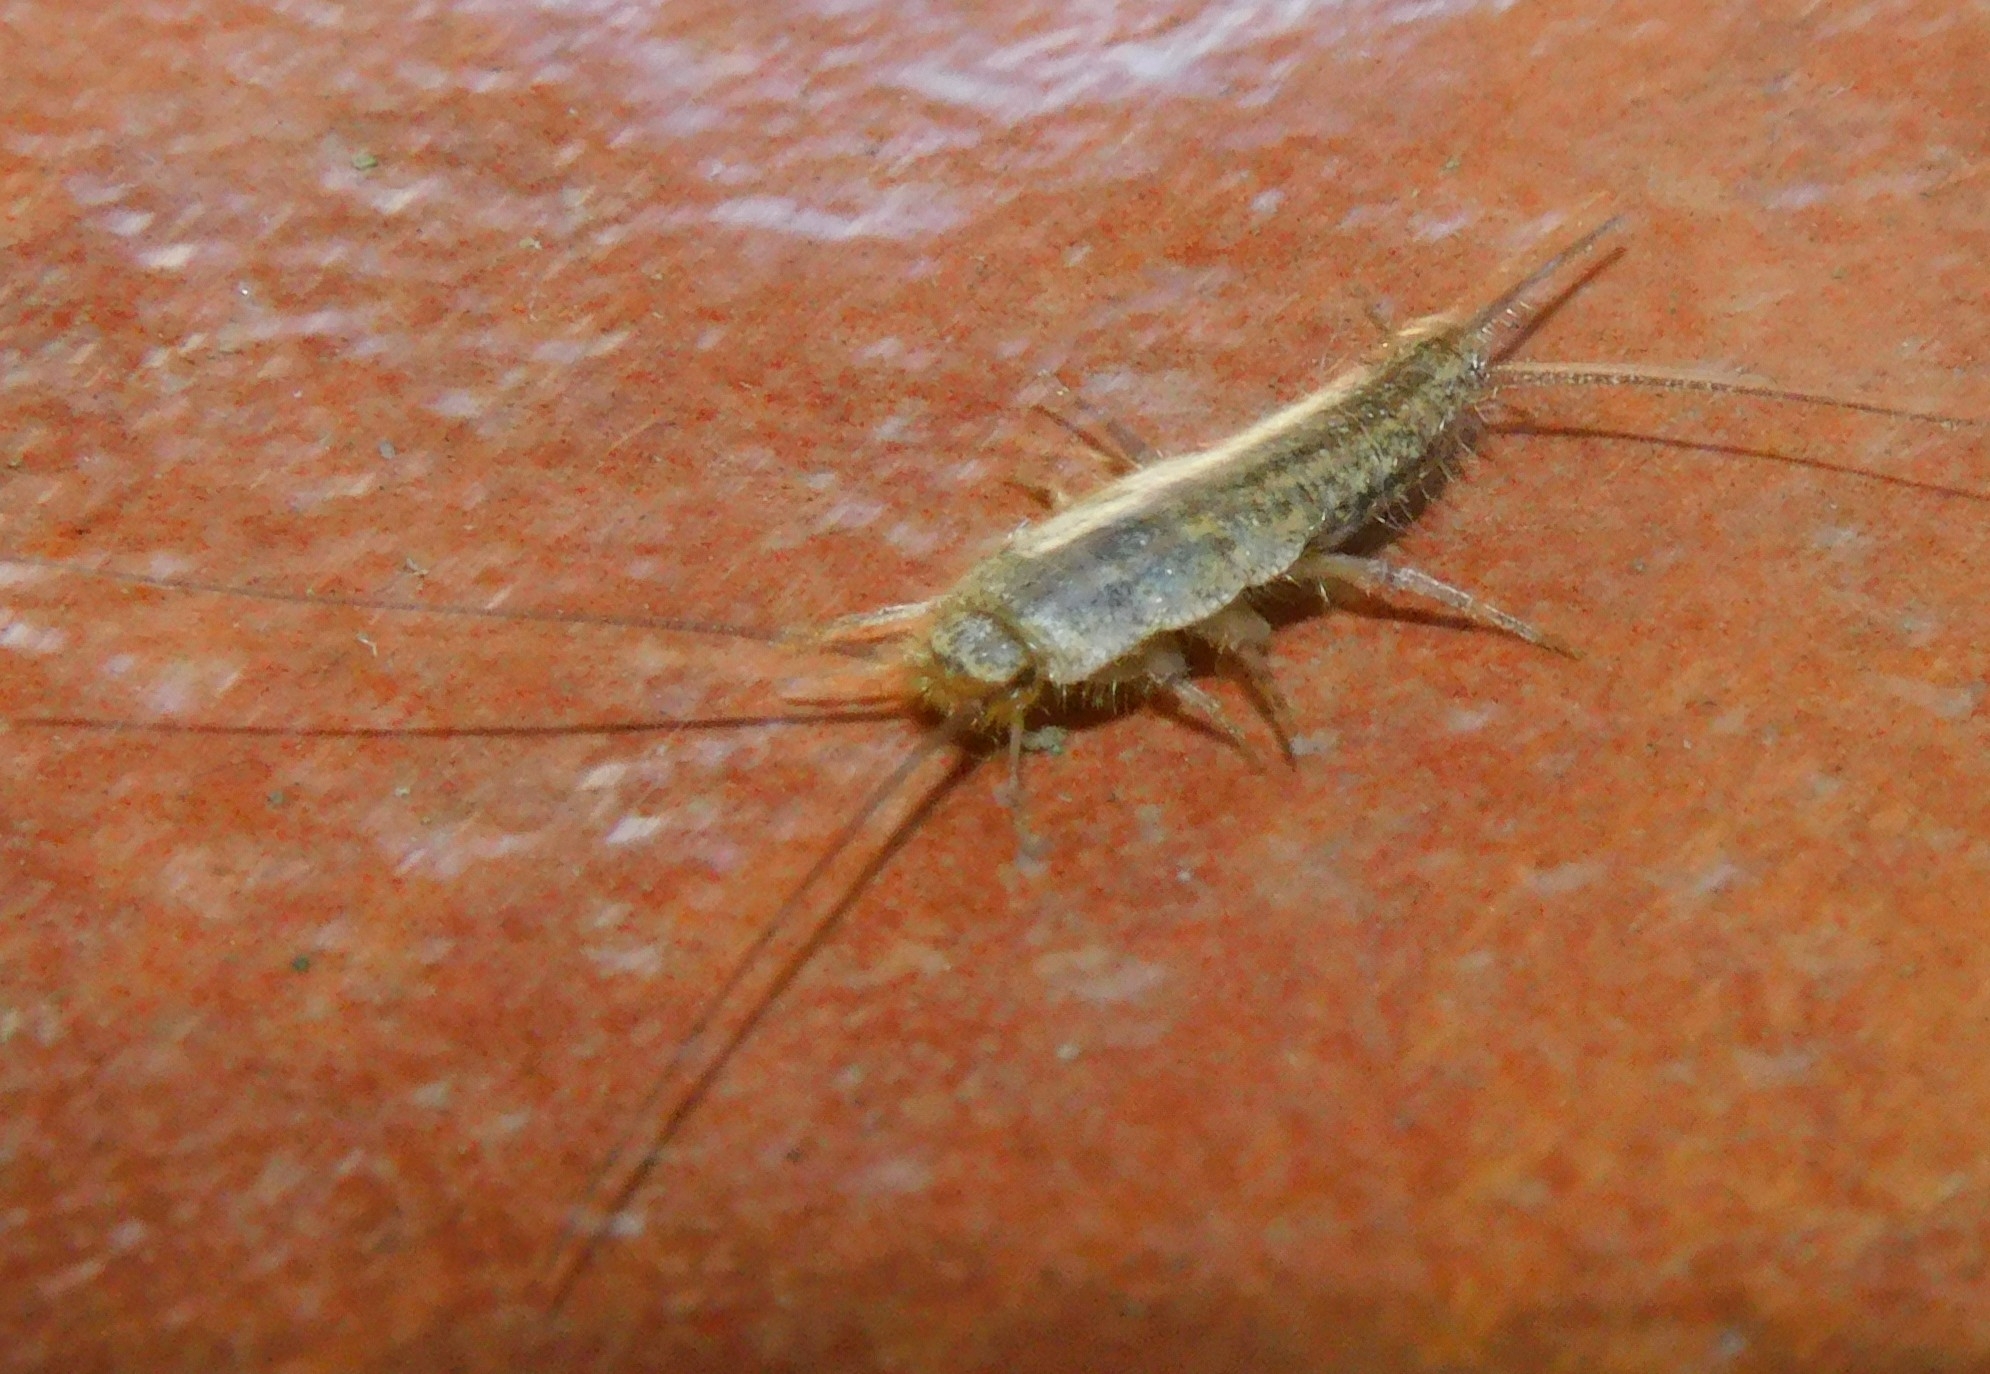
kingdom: Animalia
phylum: Arthropoda
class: Insecta
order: Zygentoma
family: Lepismatidae
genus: Ctenolepisma
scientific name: Ctenolepisma lineata
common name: Four-lined silverfish
